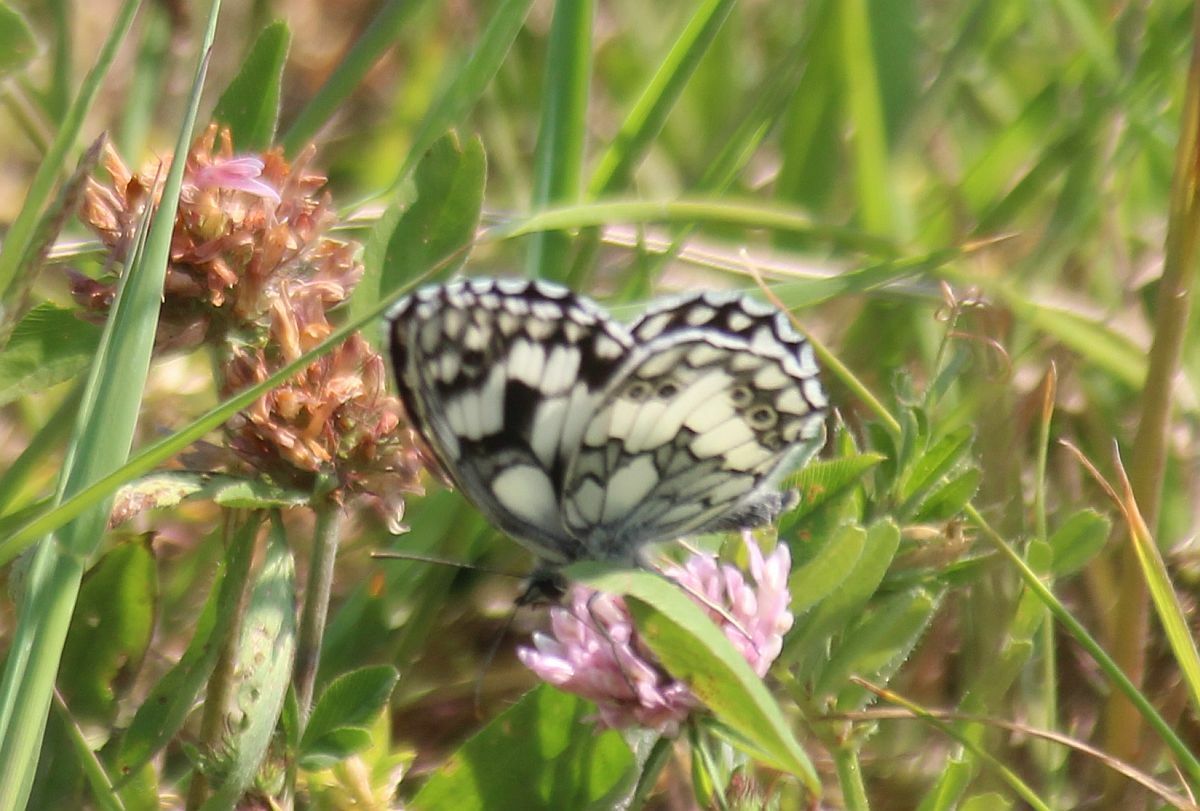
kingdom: Animalia
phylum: Arthropoda
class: Insecta
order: Lepidoptera
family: Nymphalidae
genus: Melanargia
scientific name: Melanargia galathea
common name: Marbled white
